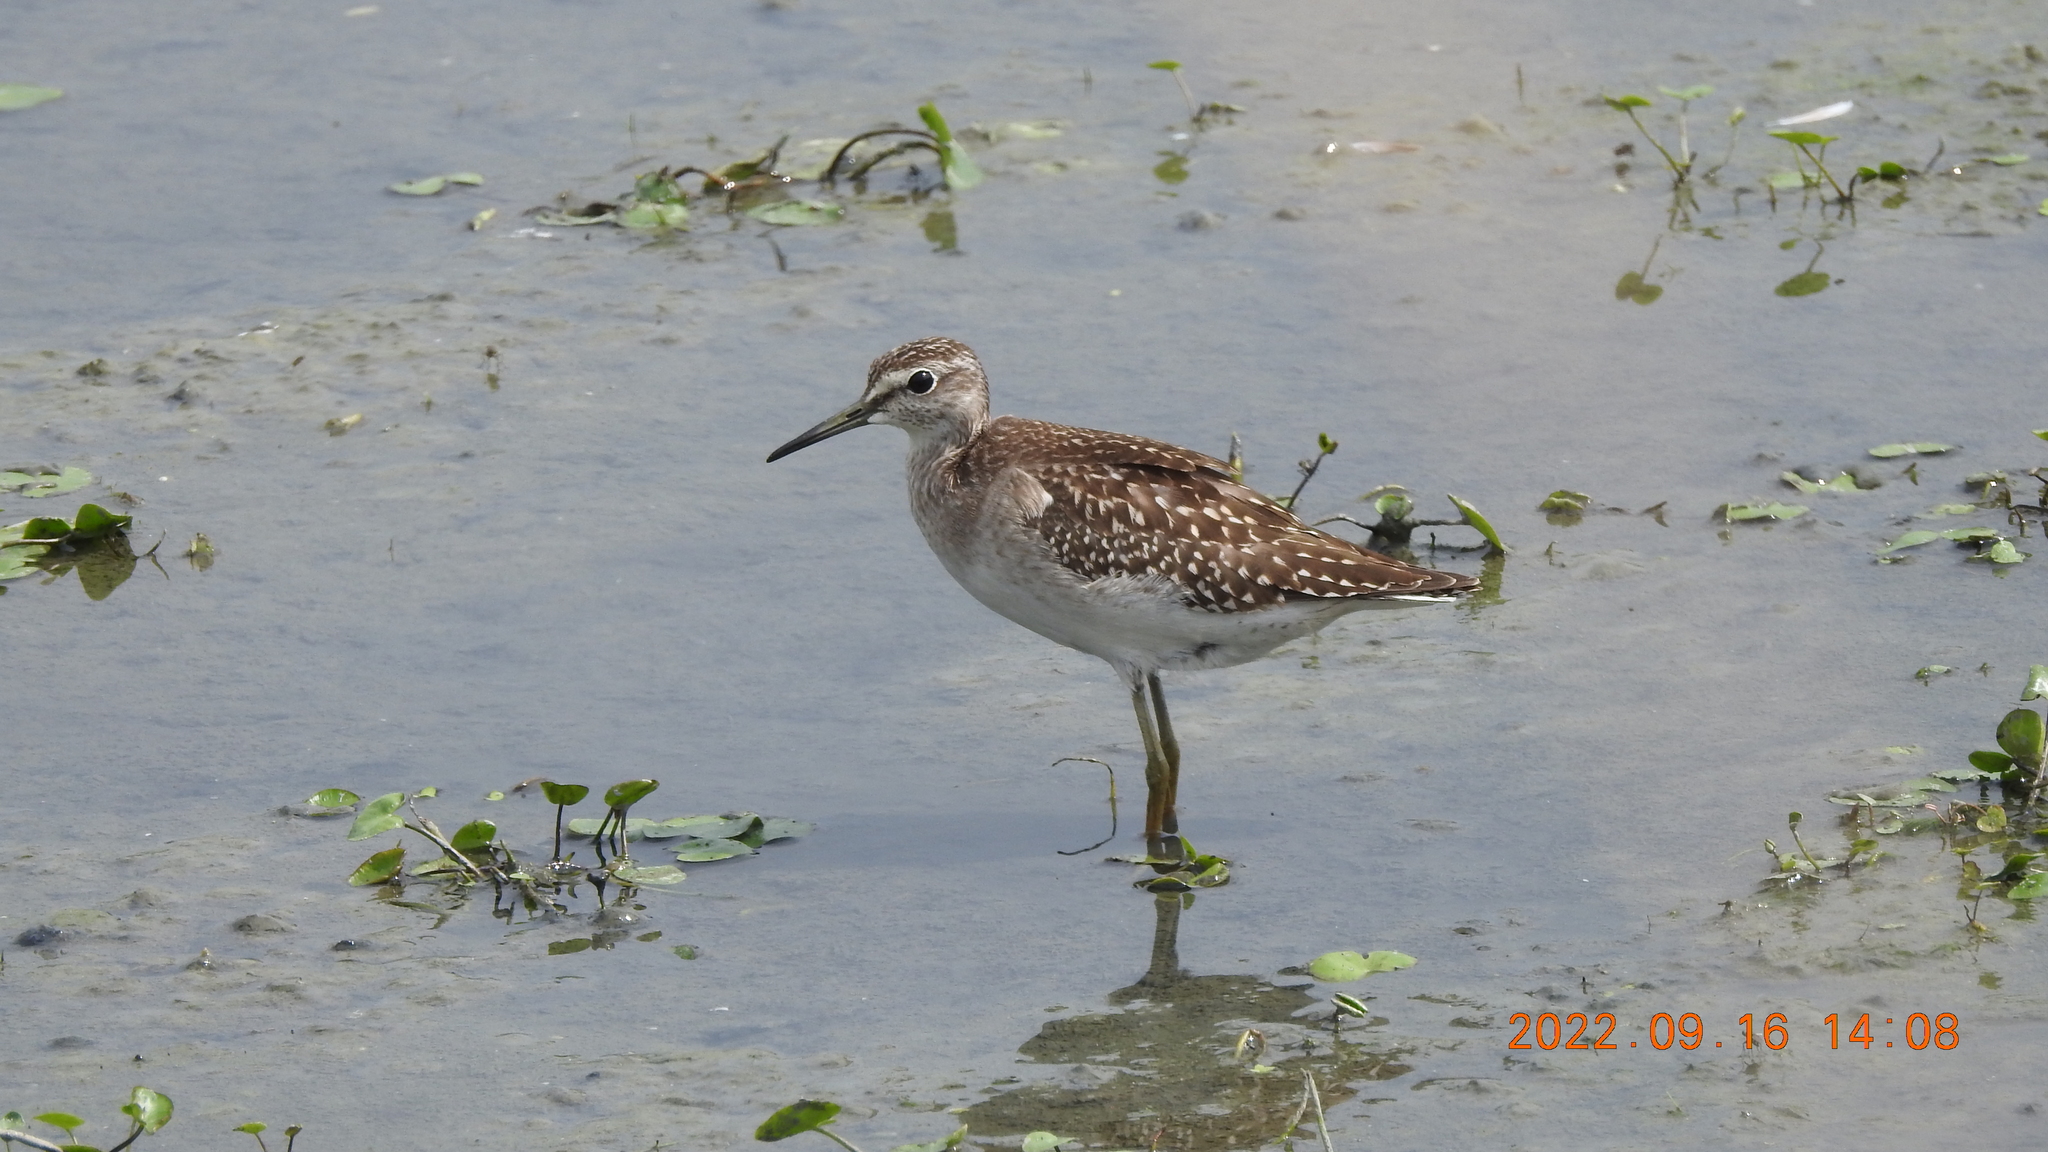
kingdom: Animalia
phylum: Chordata
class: Aves
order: Charadriiformes
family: Scolopacidae
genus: Tringa
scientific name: Tringa glareola
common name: Wood sandpiper
